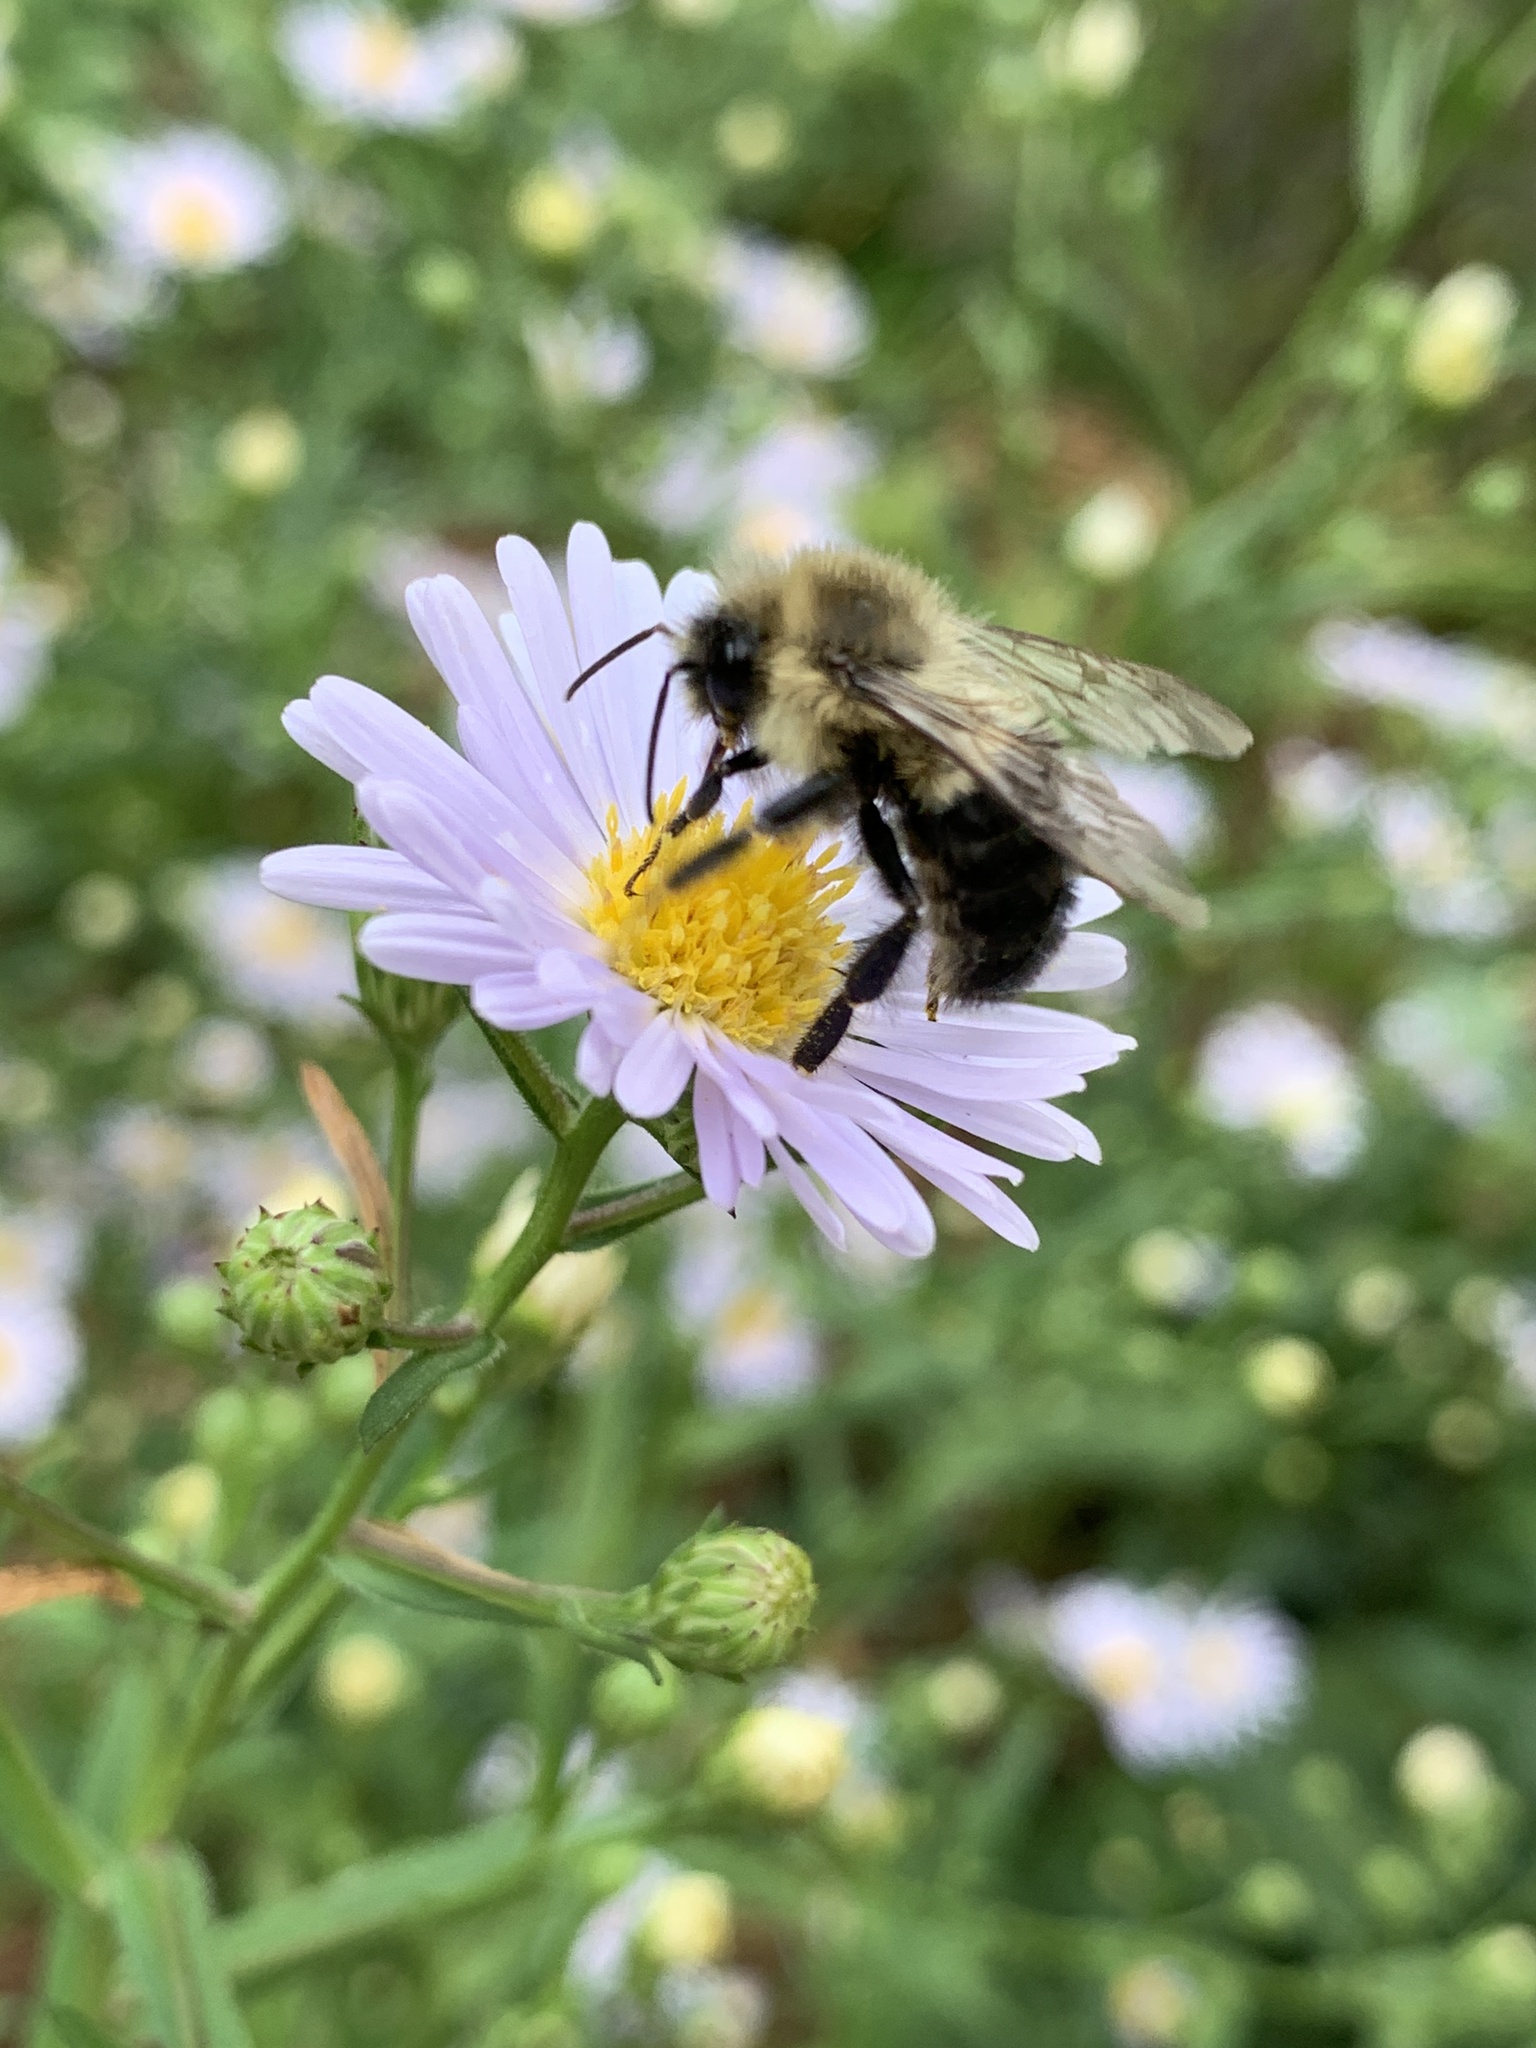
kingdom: Animalia
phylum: Arthropoda
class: Insecta
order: Hymenoptera
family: Apidae
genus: Bombus
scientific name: Bombus impatiens
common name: Common eastern bumble bee
